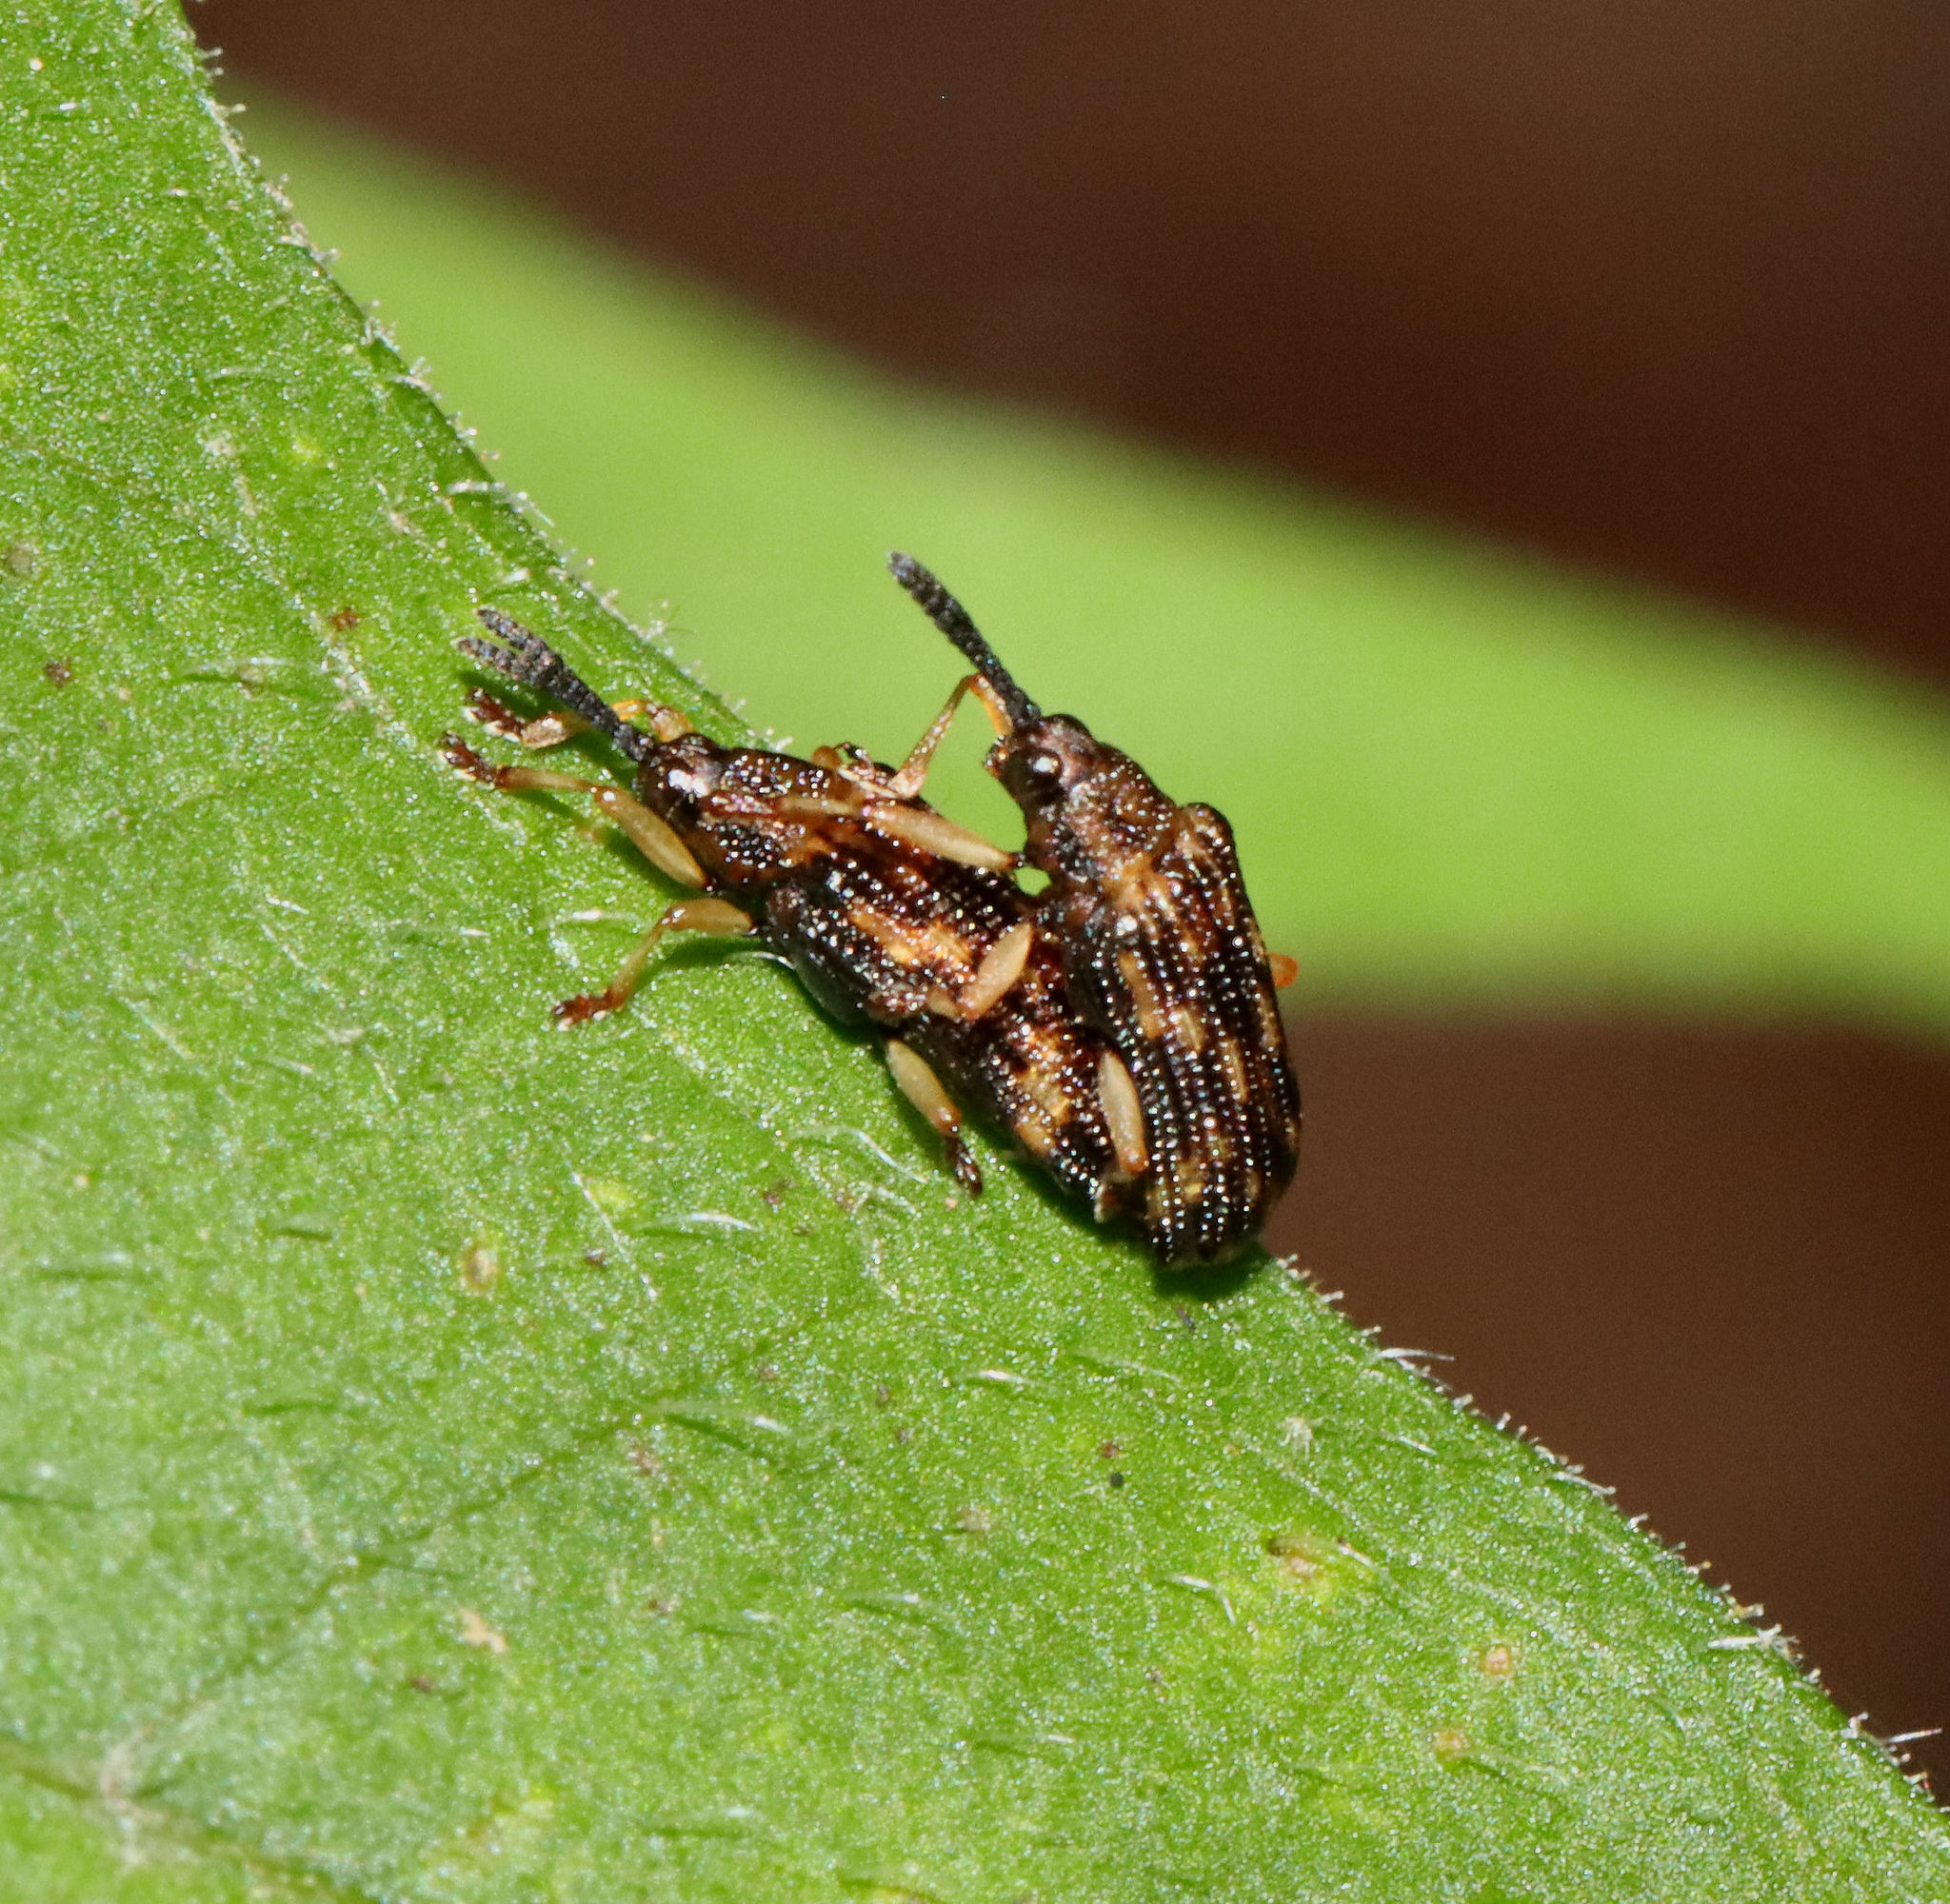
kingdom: Animalia
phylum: Arthropoda
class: Insecta
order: Coleoptera
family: Chrysomelidae
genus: Sumitrosis
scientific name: Sumitrosis inaequalis
